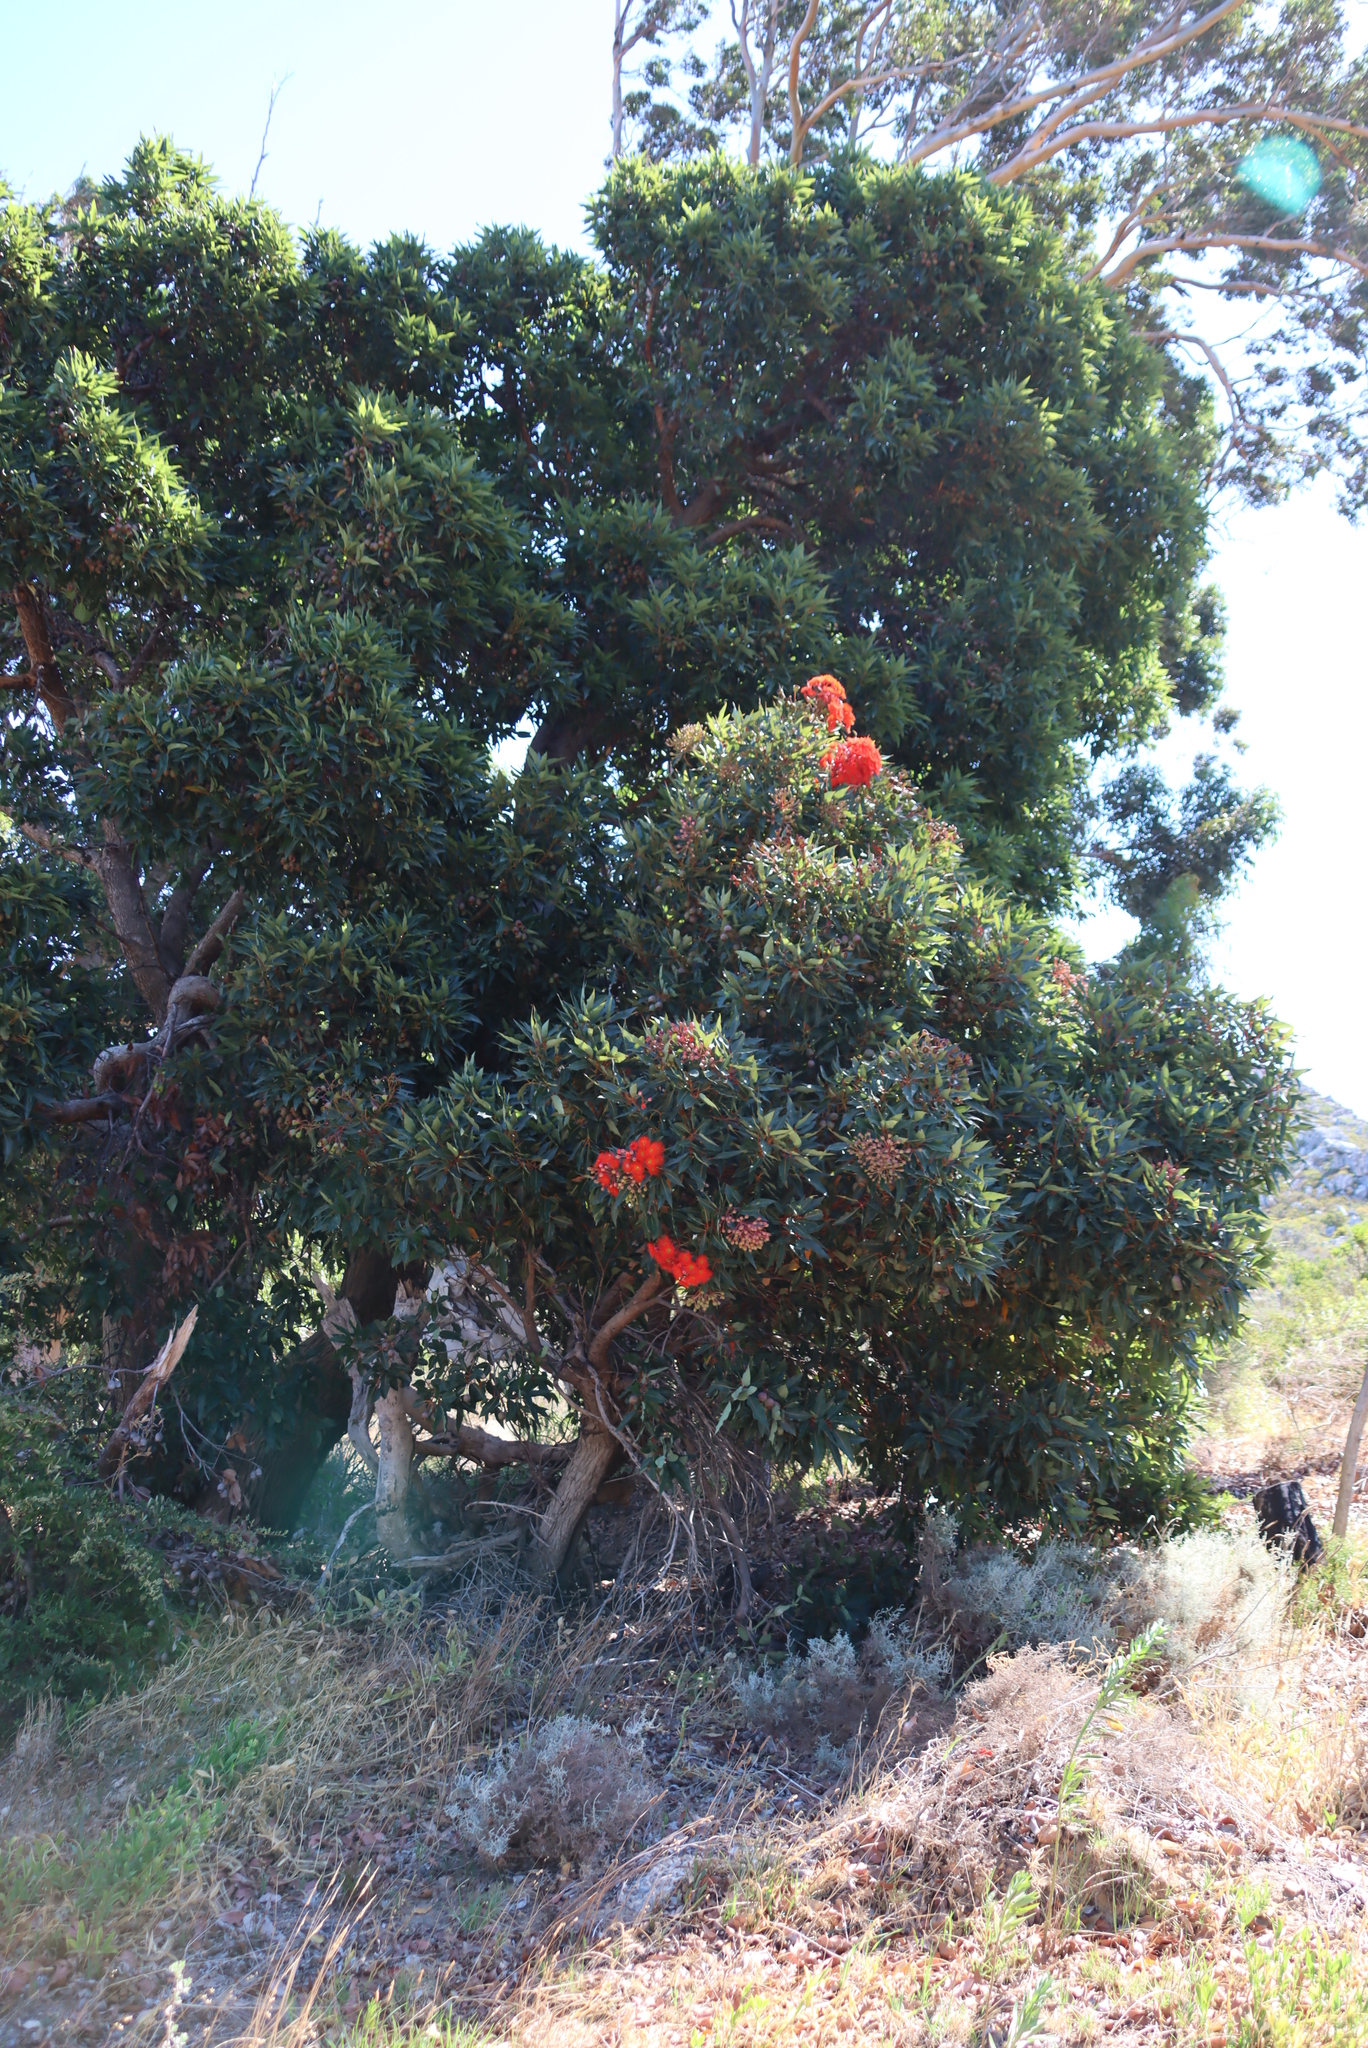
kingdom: Plantae
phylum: Tracheophyta
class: Magnoliopsida
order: Myrtales
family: Myrtaceae
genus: Corymbia
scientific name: Corymbia ficifolia
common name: Redflower gum
